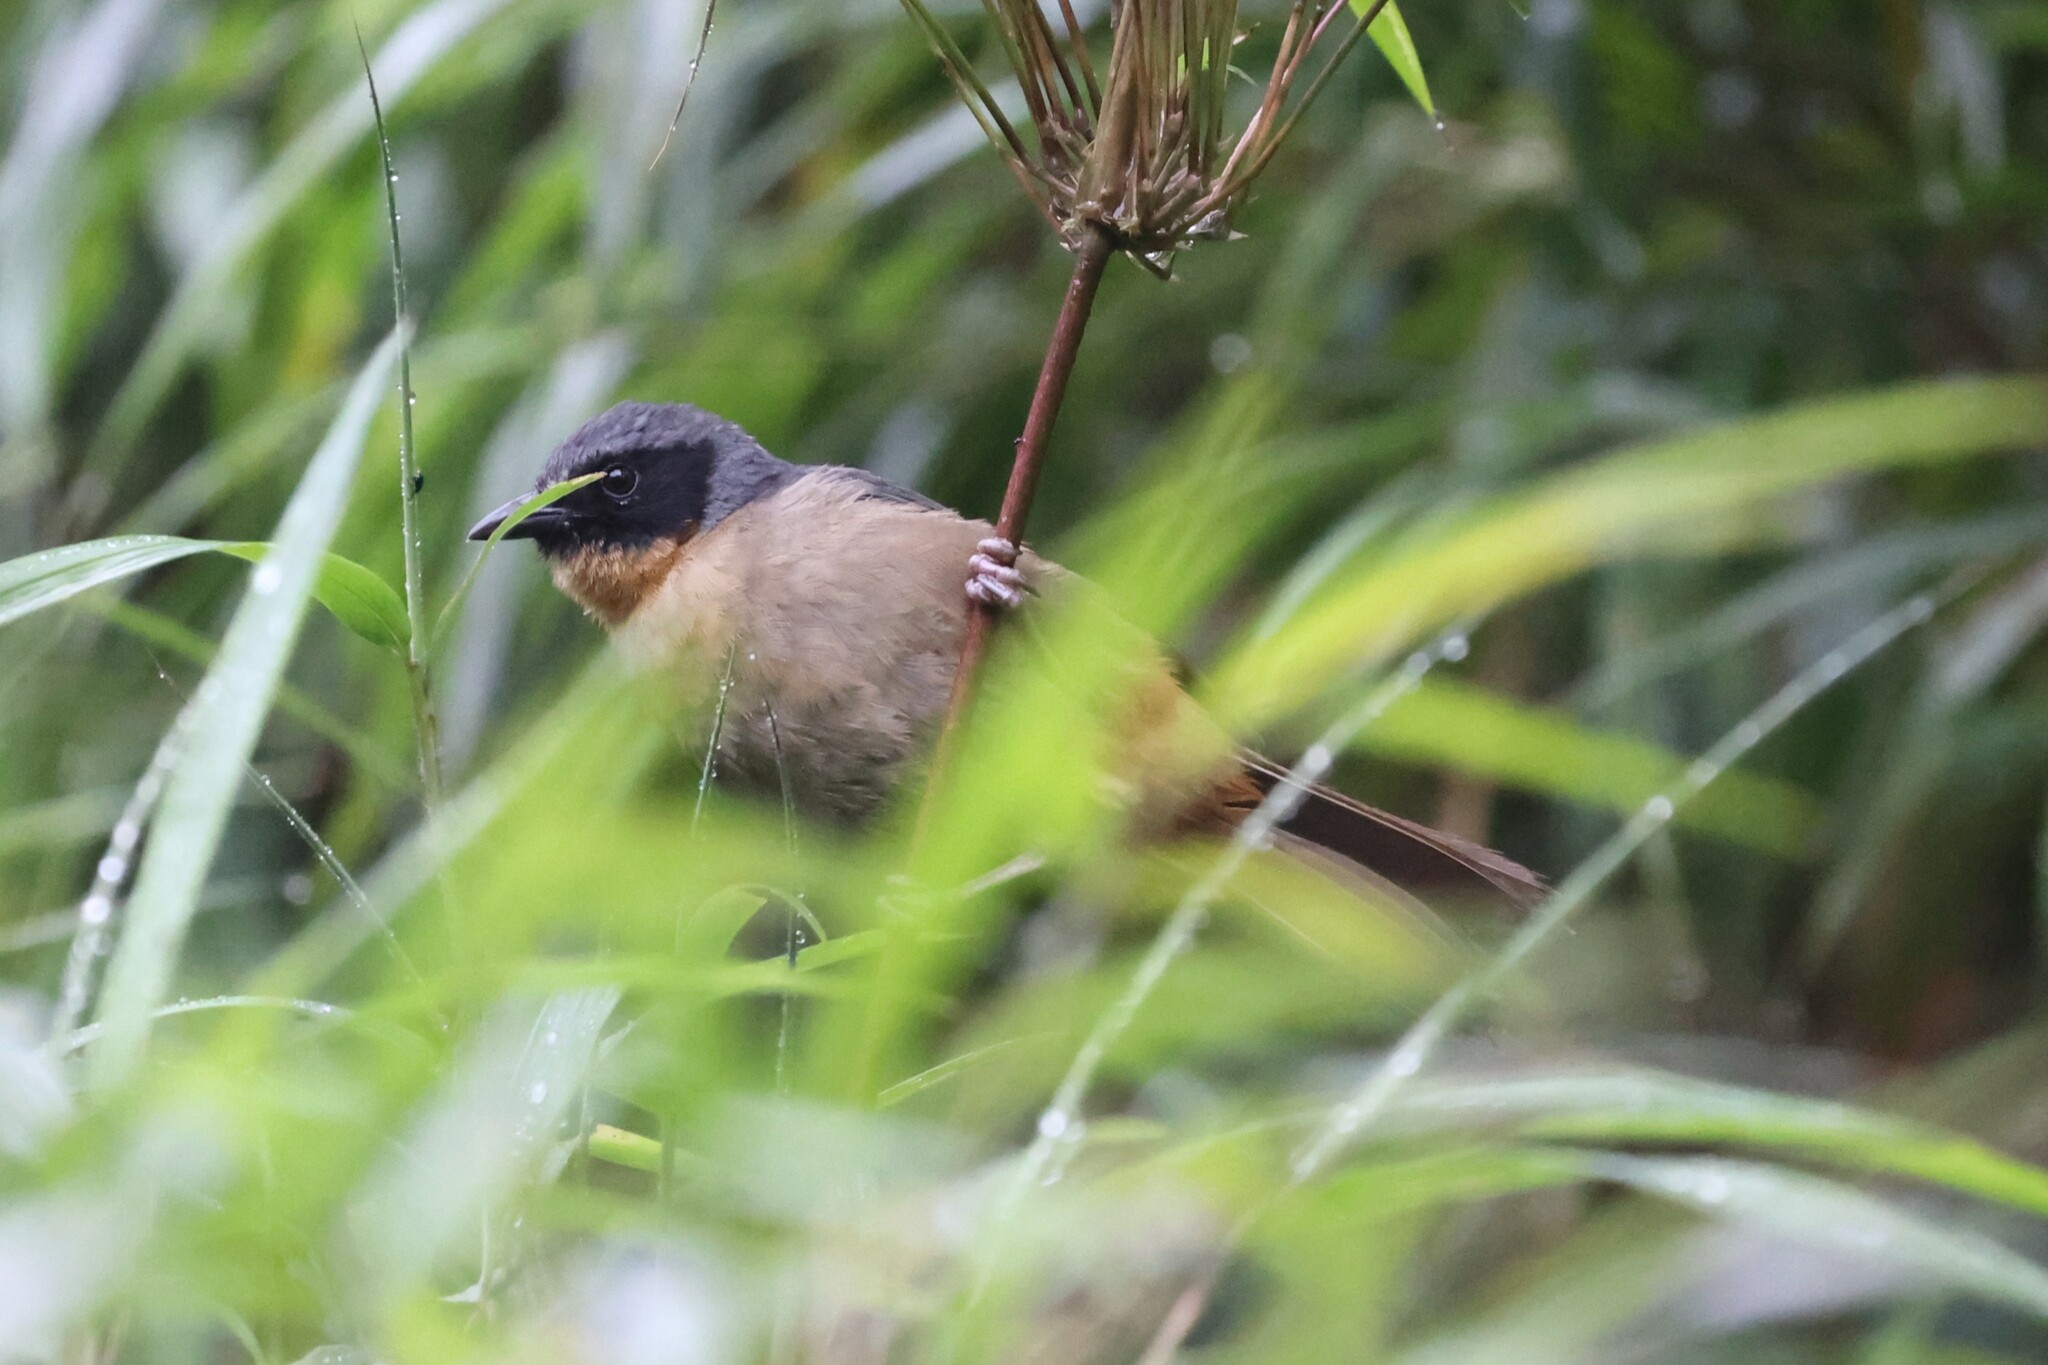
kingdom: Animalia
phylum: Chordata
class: Aves
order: Passeriformes
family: Thraupidae
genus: Sphenopsis
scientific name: Sphenopsis melanotis
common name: Black-eared hemispingus
